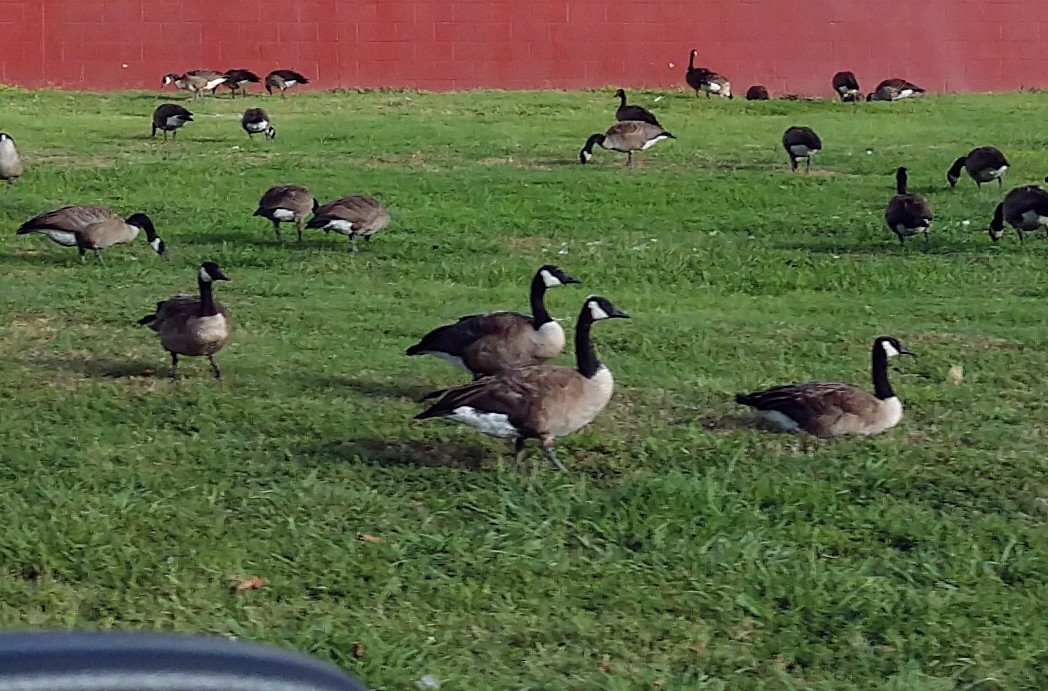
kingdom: Animalia
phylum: Chordata
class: Aves
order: Anseriformes
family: Anatidae
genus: Branta
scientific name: Branta canadensis
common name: Canada goose
